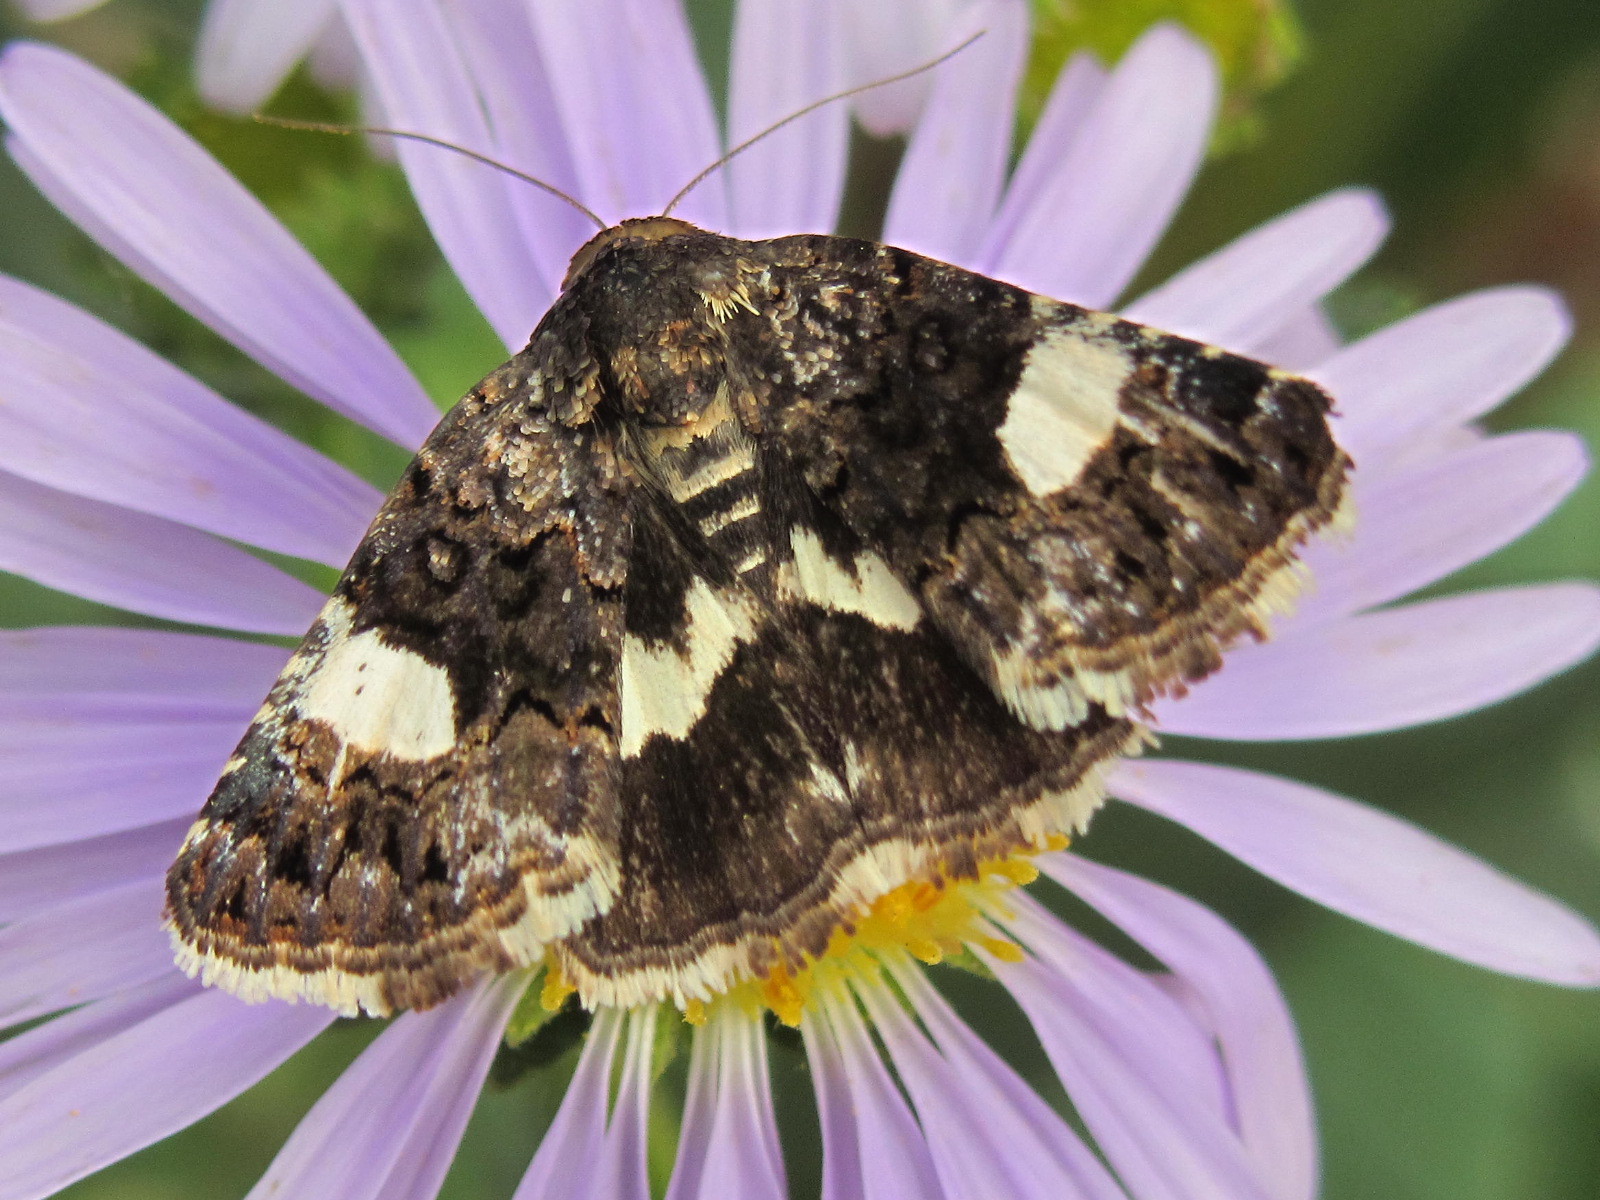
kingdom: Animalia
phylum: Arthropoda
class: Insecta
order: Lepidoptera
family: Erebidae
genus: Tyta
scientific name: Tyta luctuosa
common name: Four-spotted
